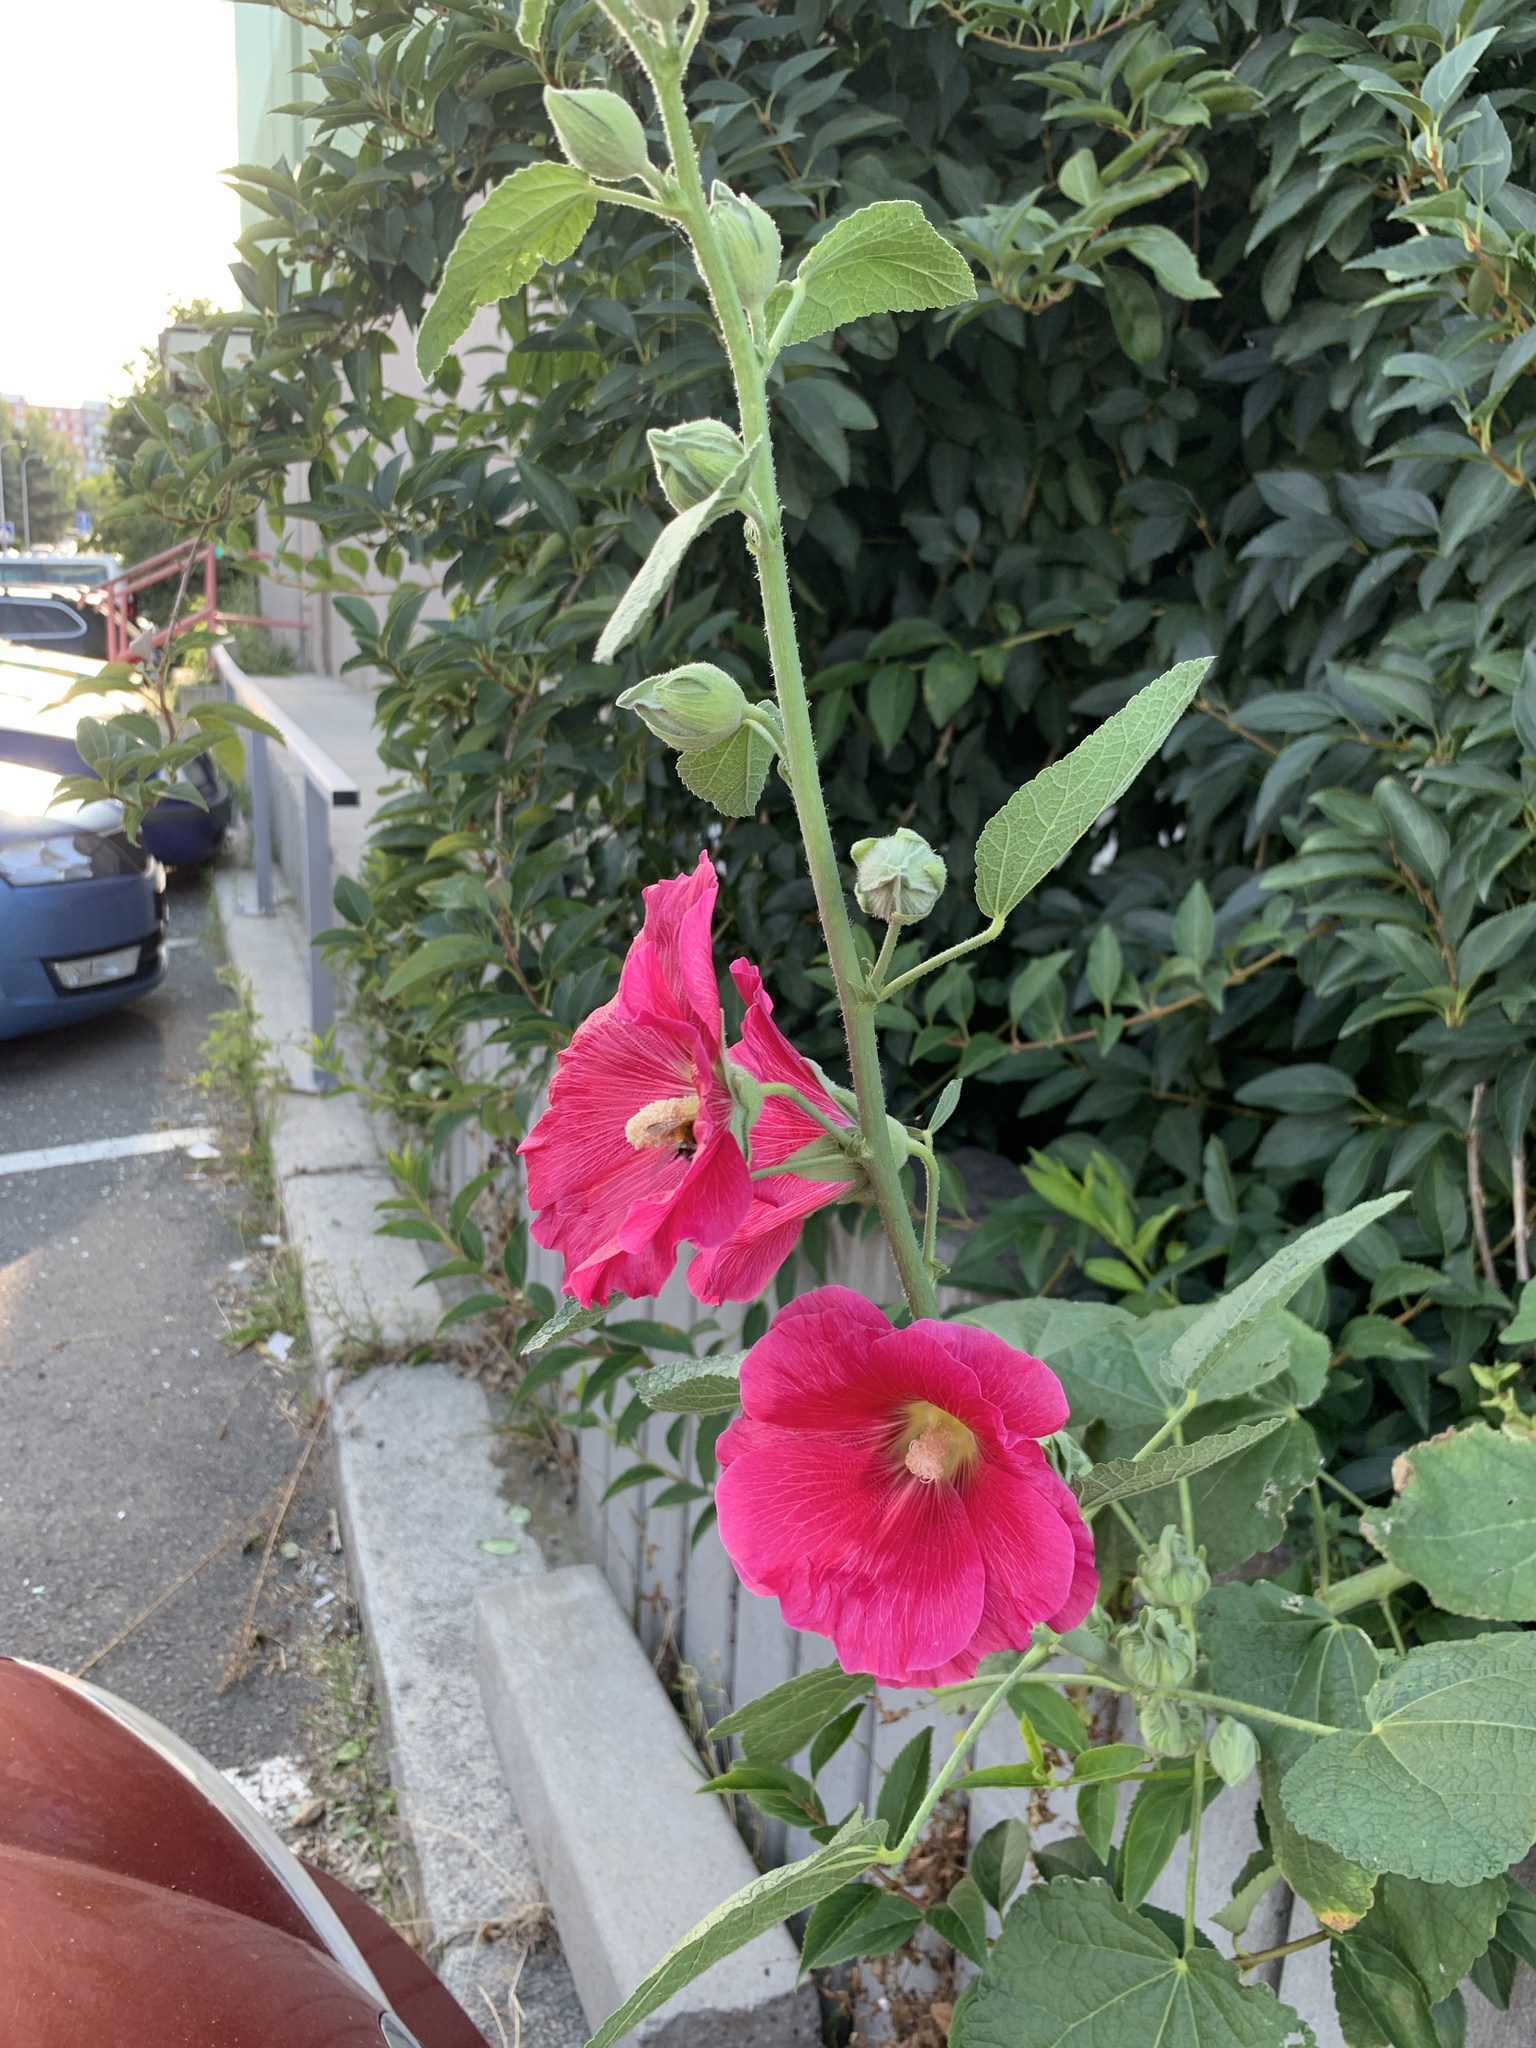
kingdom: Plantae
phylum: Tracheophyta
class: Magnoliopsida
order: Malvales
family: Malvaceae
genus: Alcea
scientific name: Alcea rosea
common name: Hollyhock
